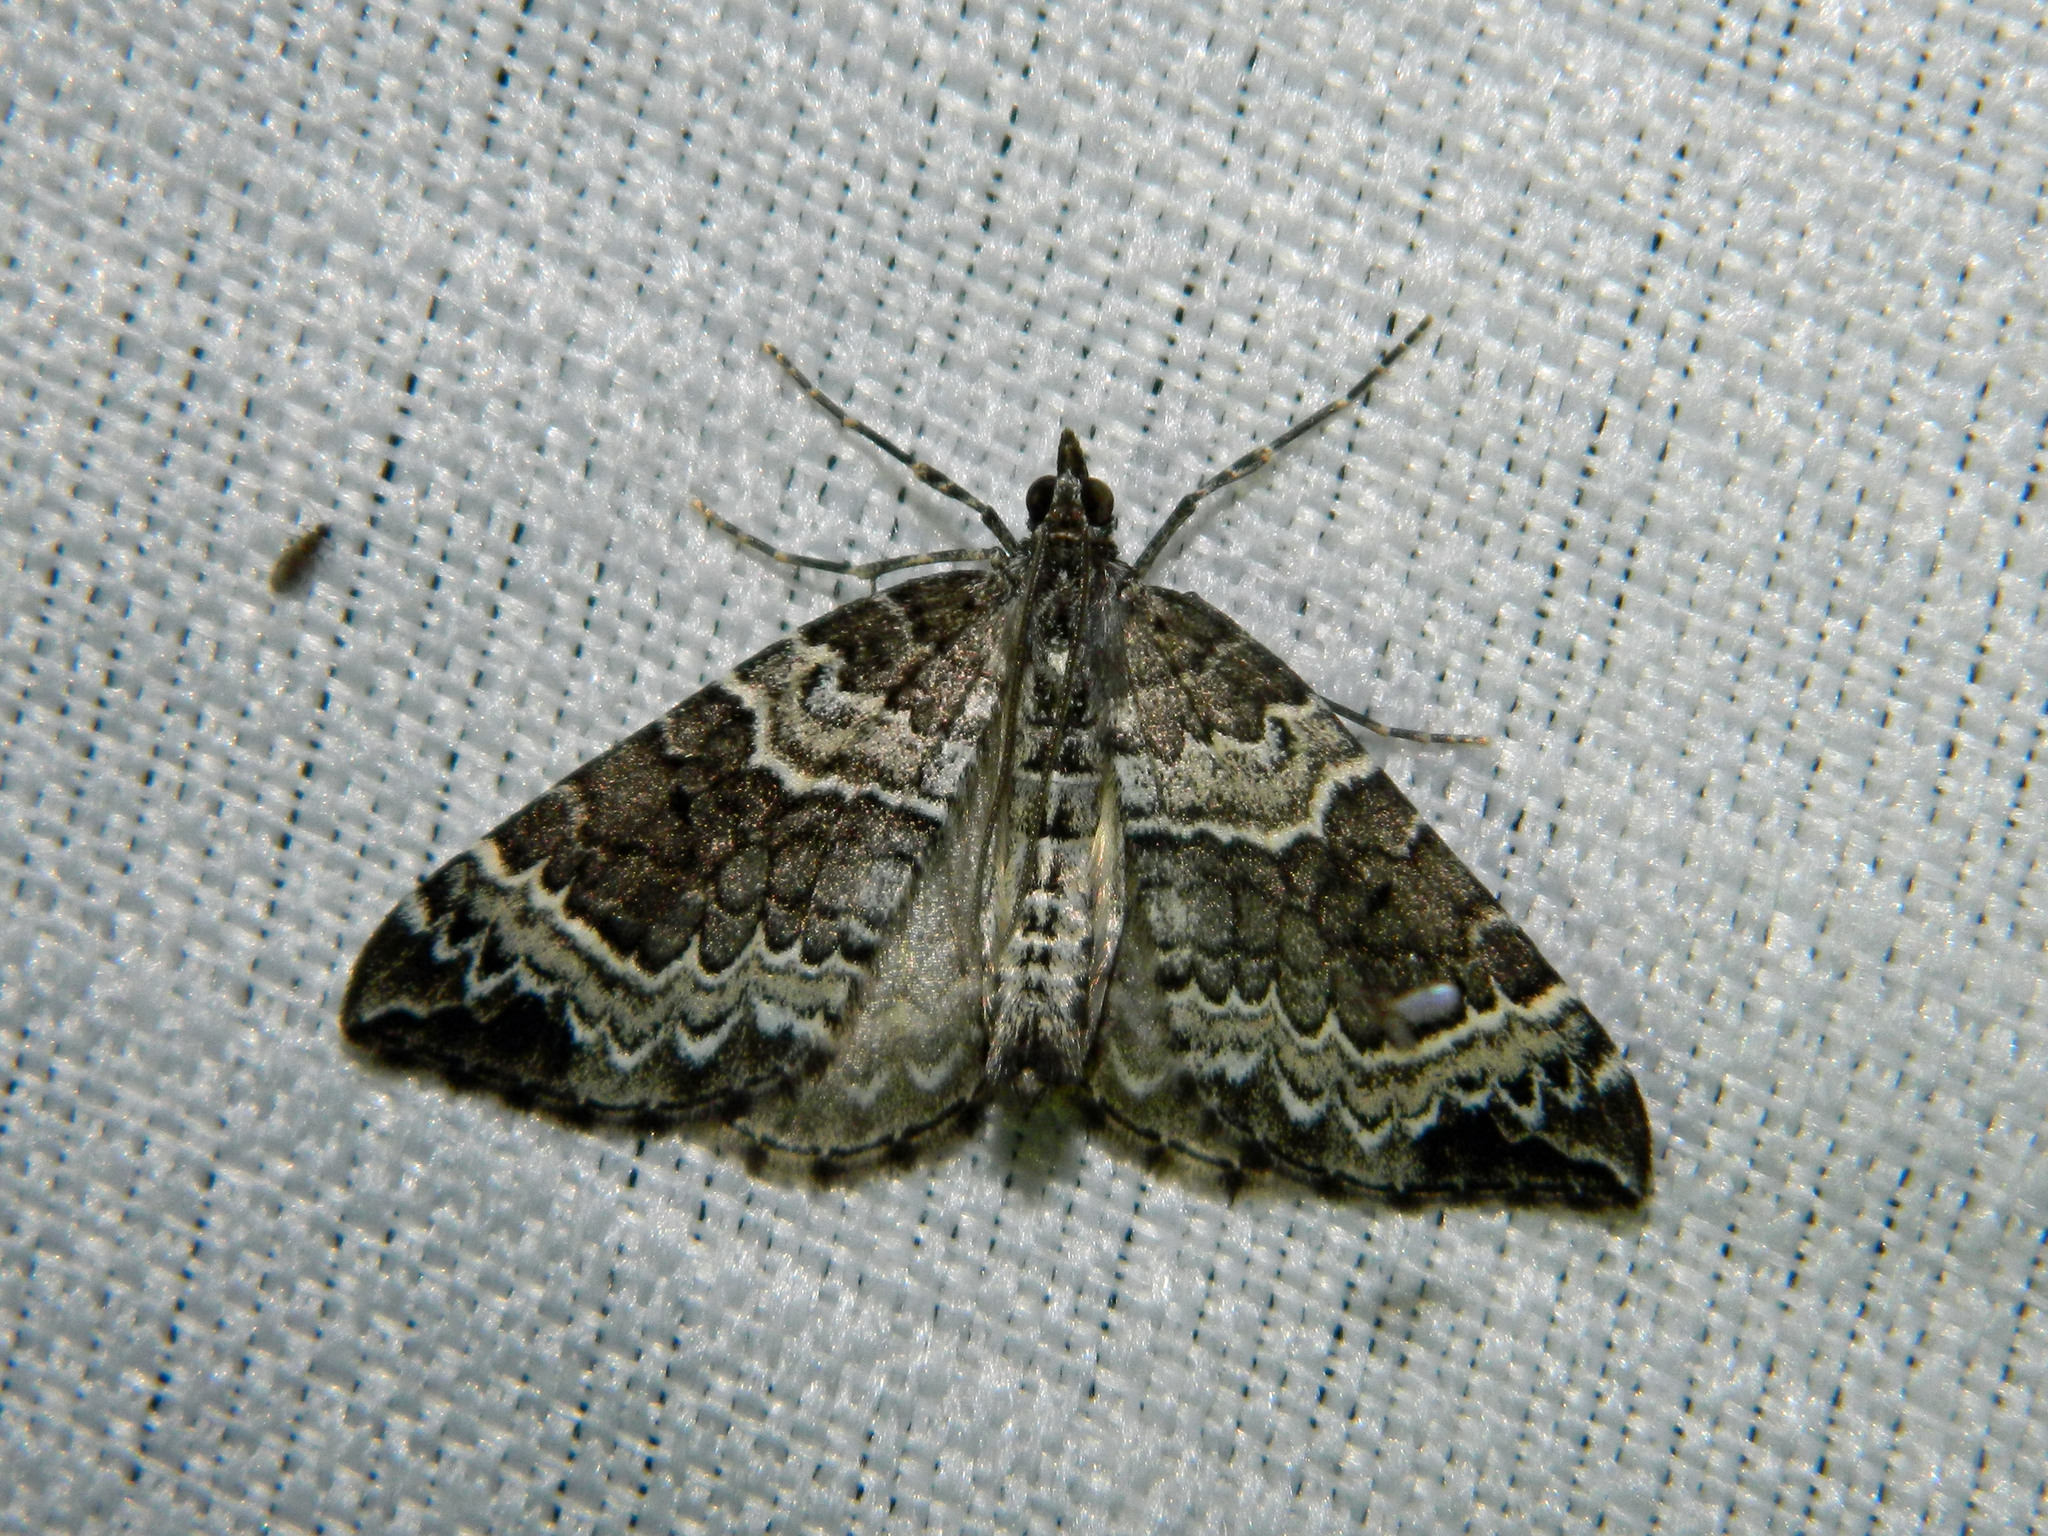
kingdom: Animalia
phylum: Arthropoda
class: Insecta
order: Lepidoptera
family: Geometridae
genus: Eulithis
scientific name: Eulithis explanata
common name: White eulithis
